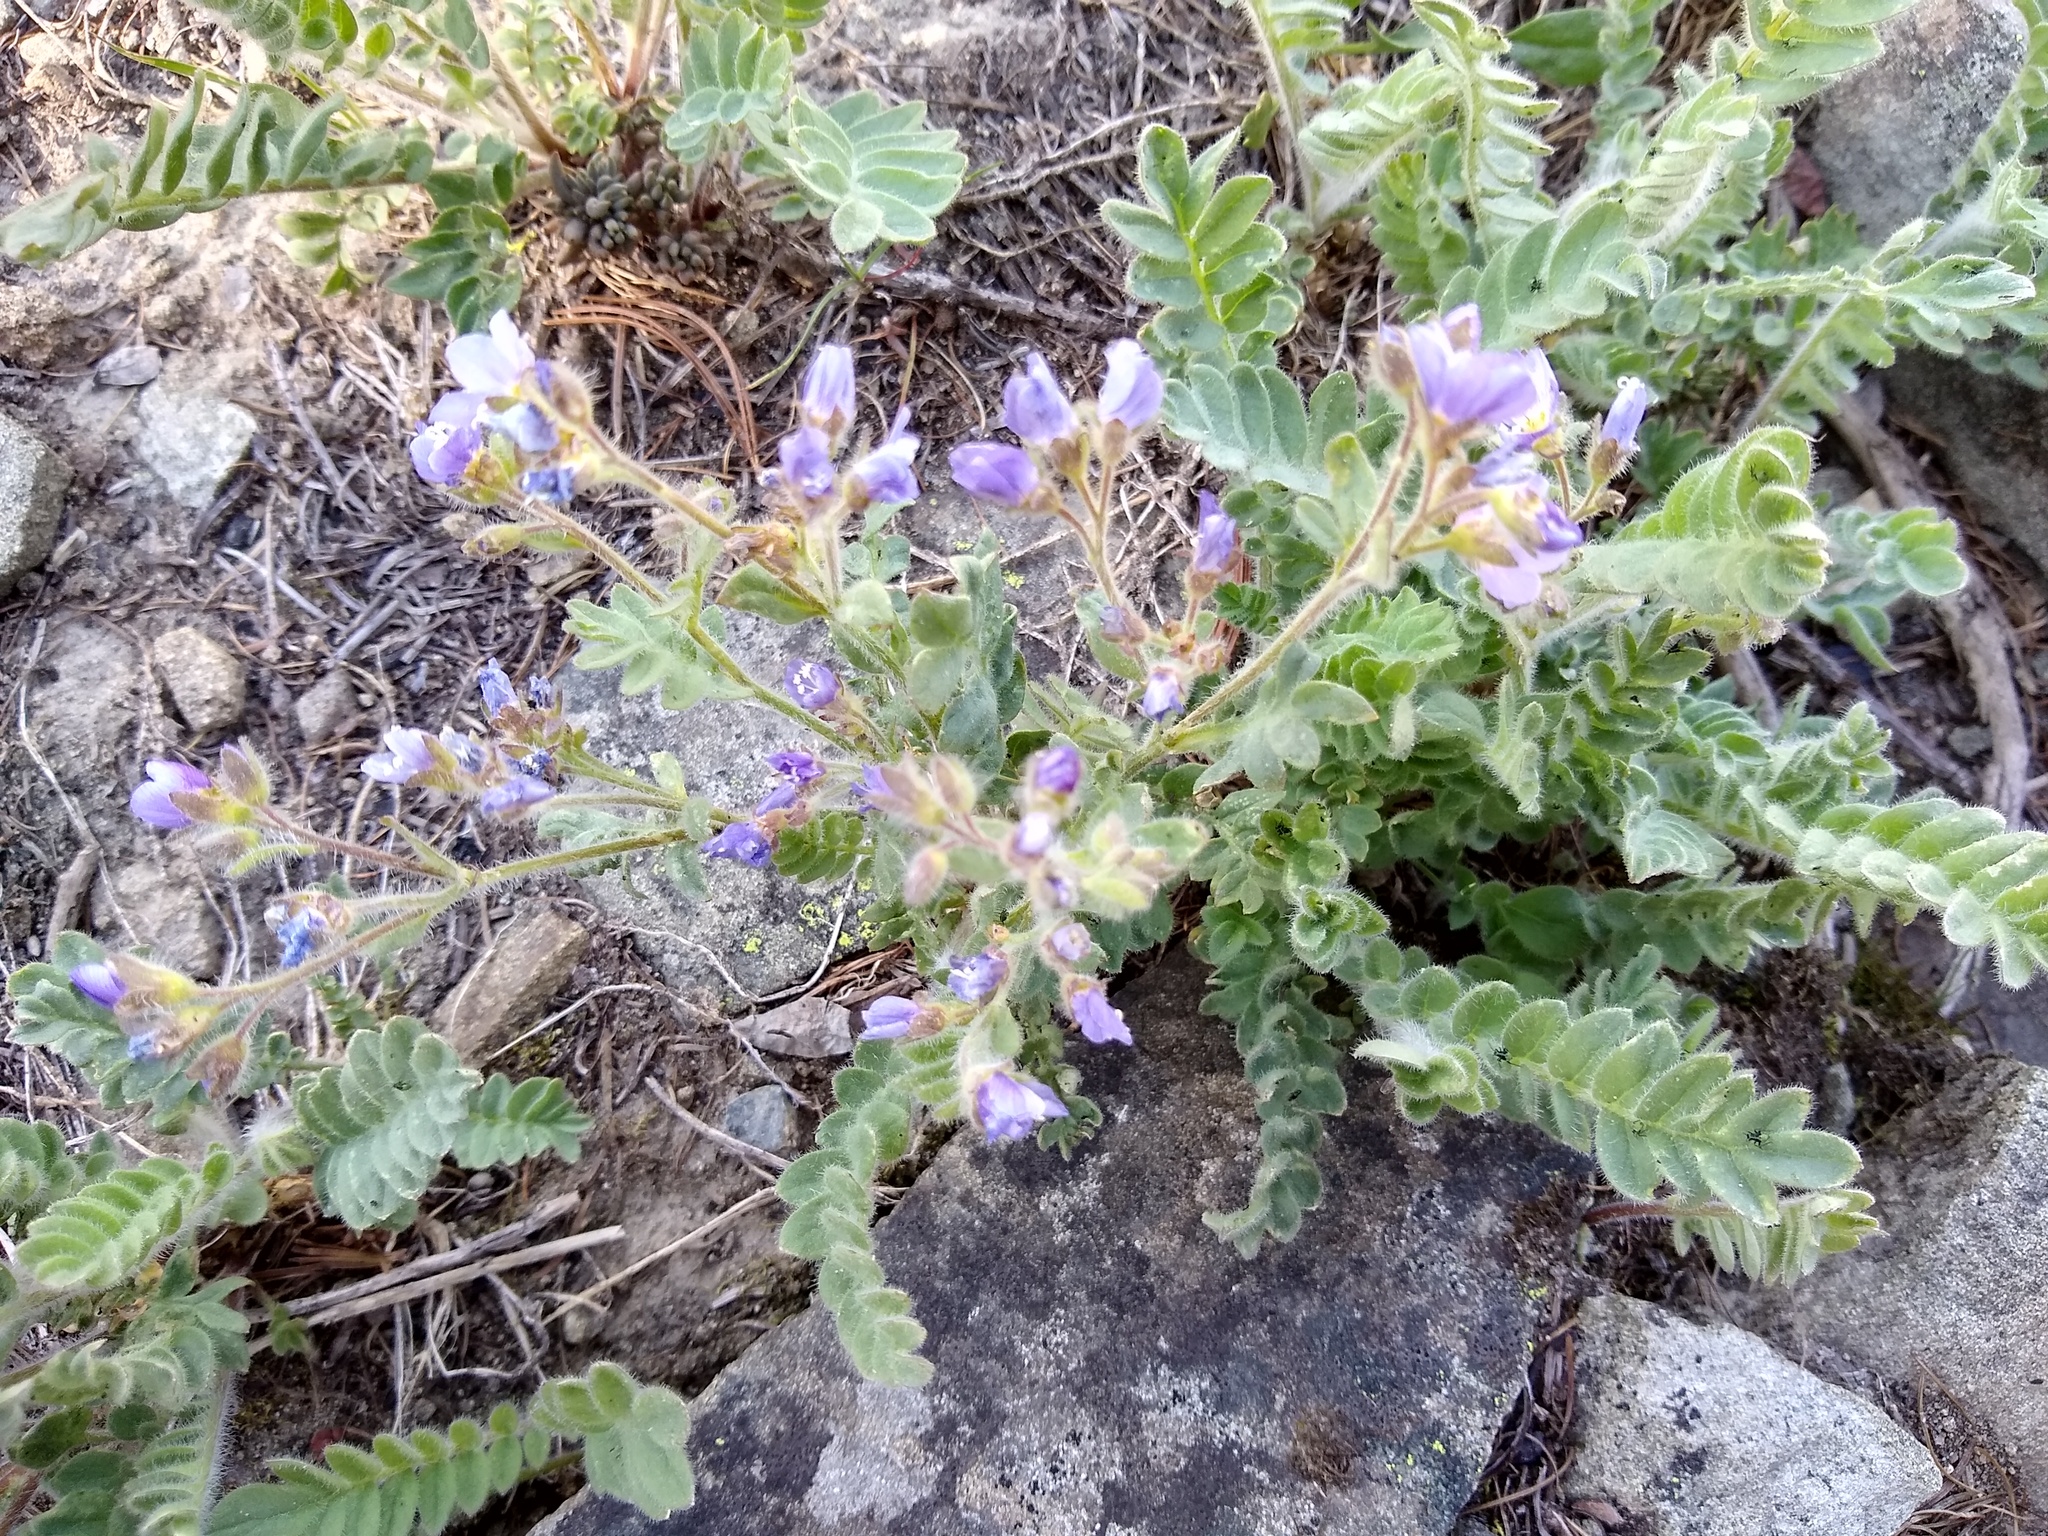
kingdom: Plantae
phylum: Tracheophyta
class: Magnoliopsida
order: Ericales
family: Polemoniaceae
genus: Polemonium
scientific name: Polemonium californicum
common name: California jacob's ladder
